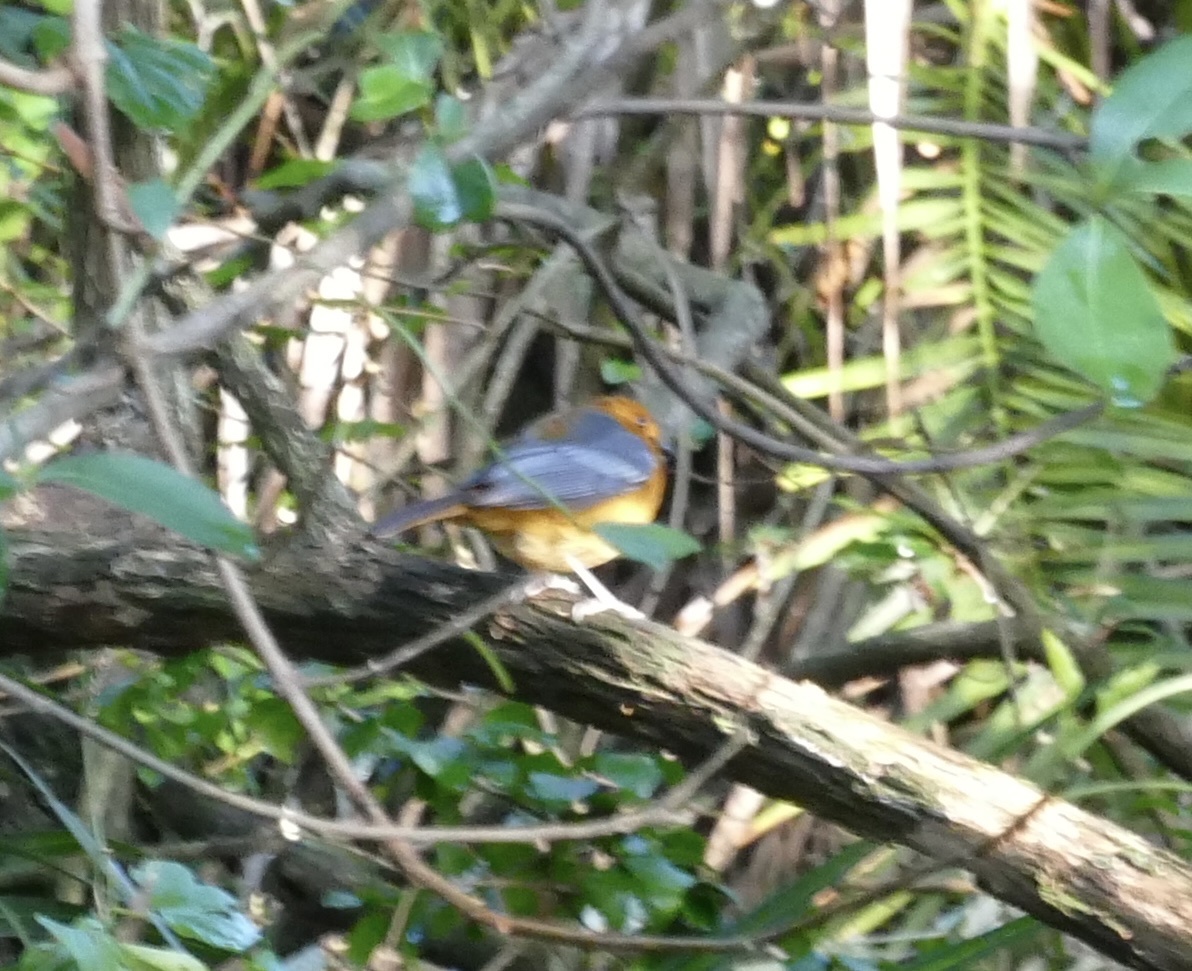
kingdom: Animalia
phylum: Chordata
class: Aves
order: Passeriformes
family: Muscicapidae
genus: Cossypha
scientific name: Cossypha natalensis
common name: Red-capped robin-chat
